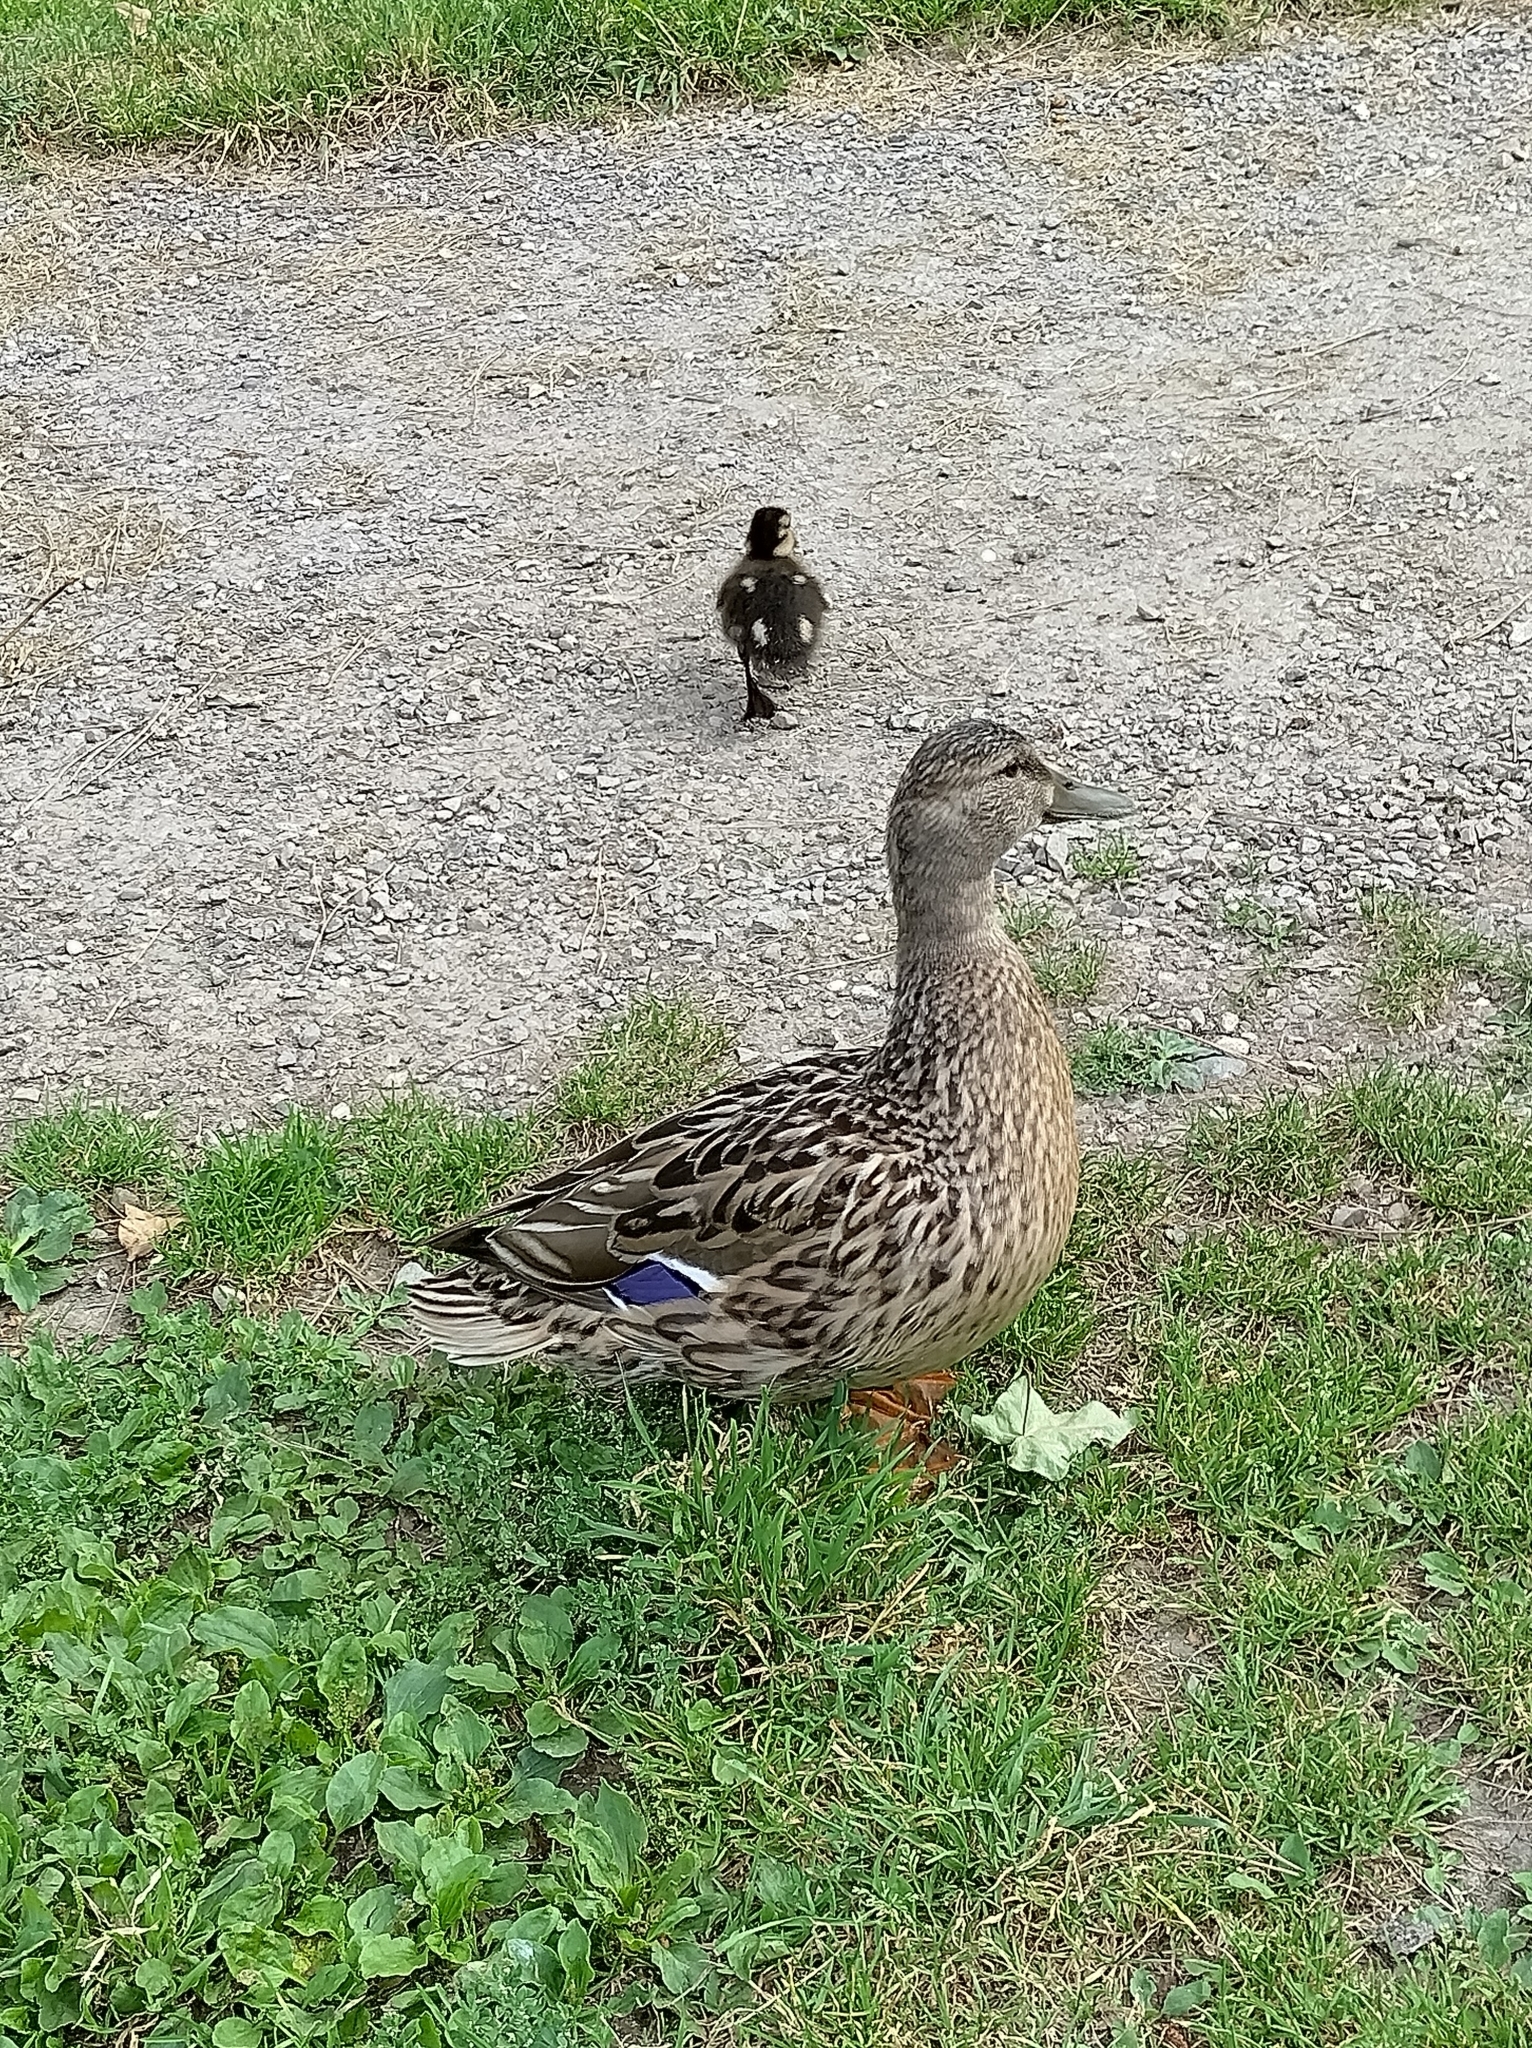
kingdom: Animalia
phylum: Chordata
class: Aves
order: Anseriformes
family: Anatidae
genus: Anas
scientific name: Anas platyrhynchos
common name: Mallard
